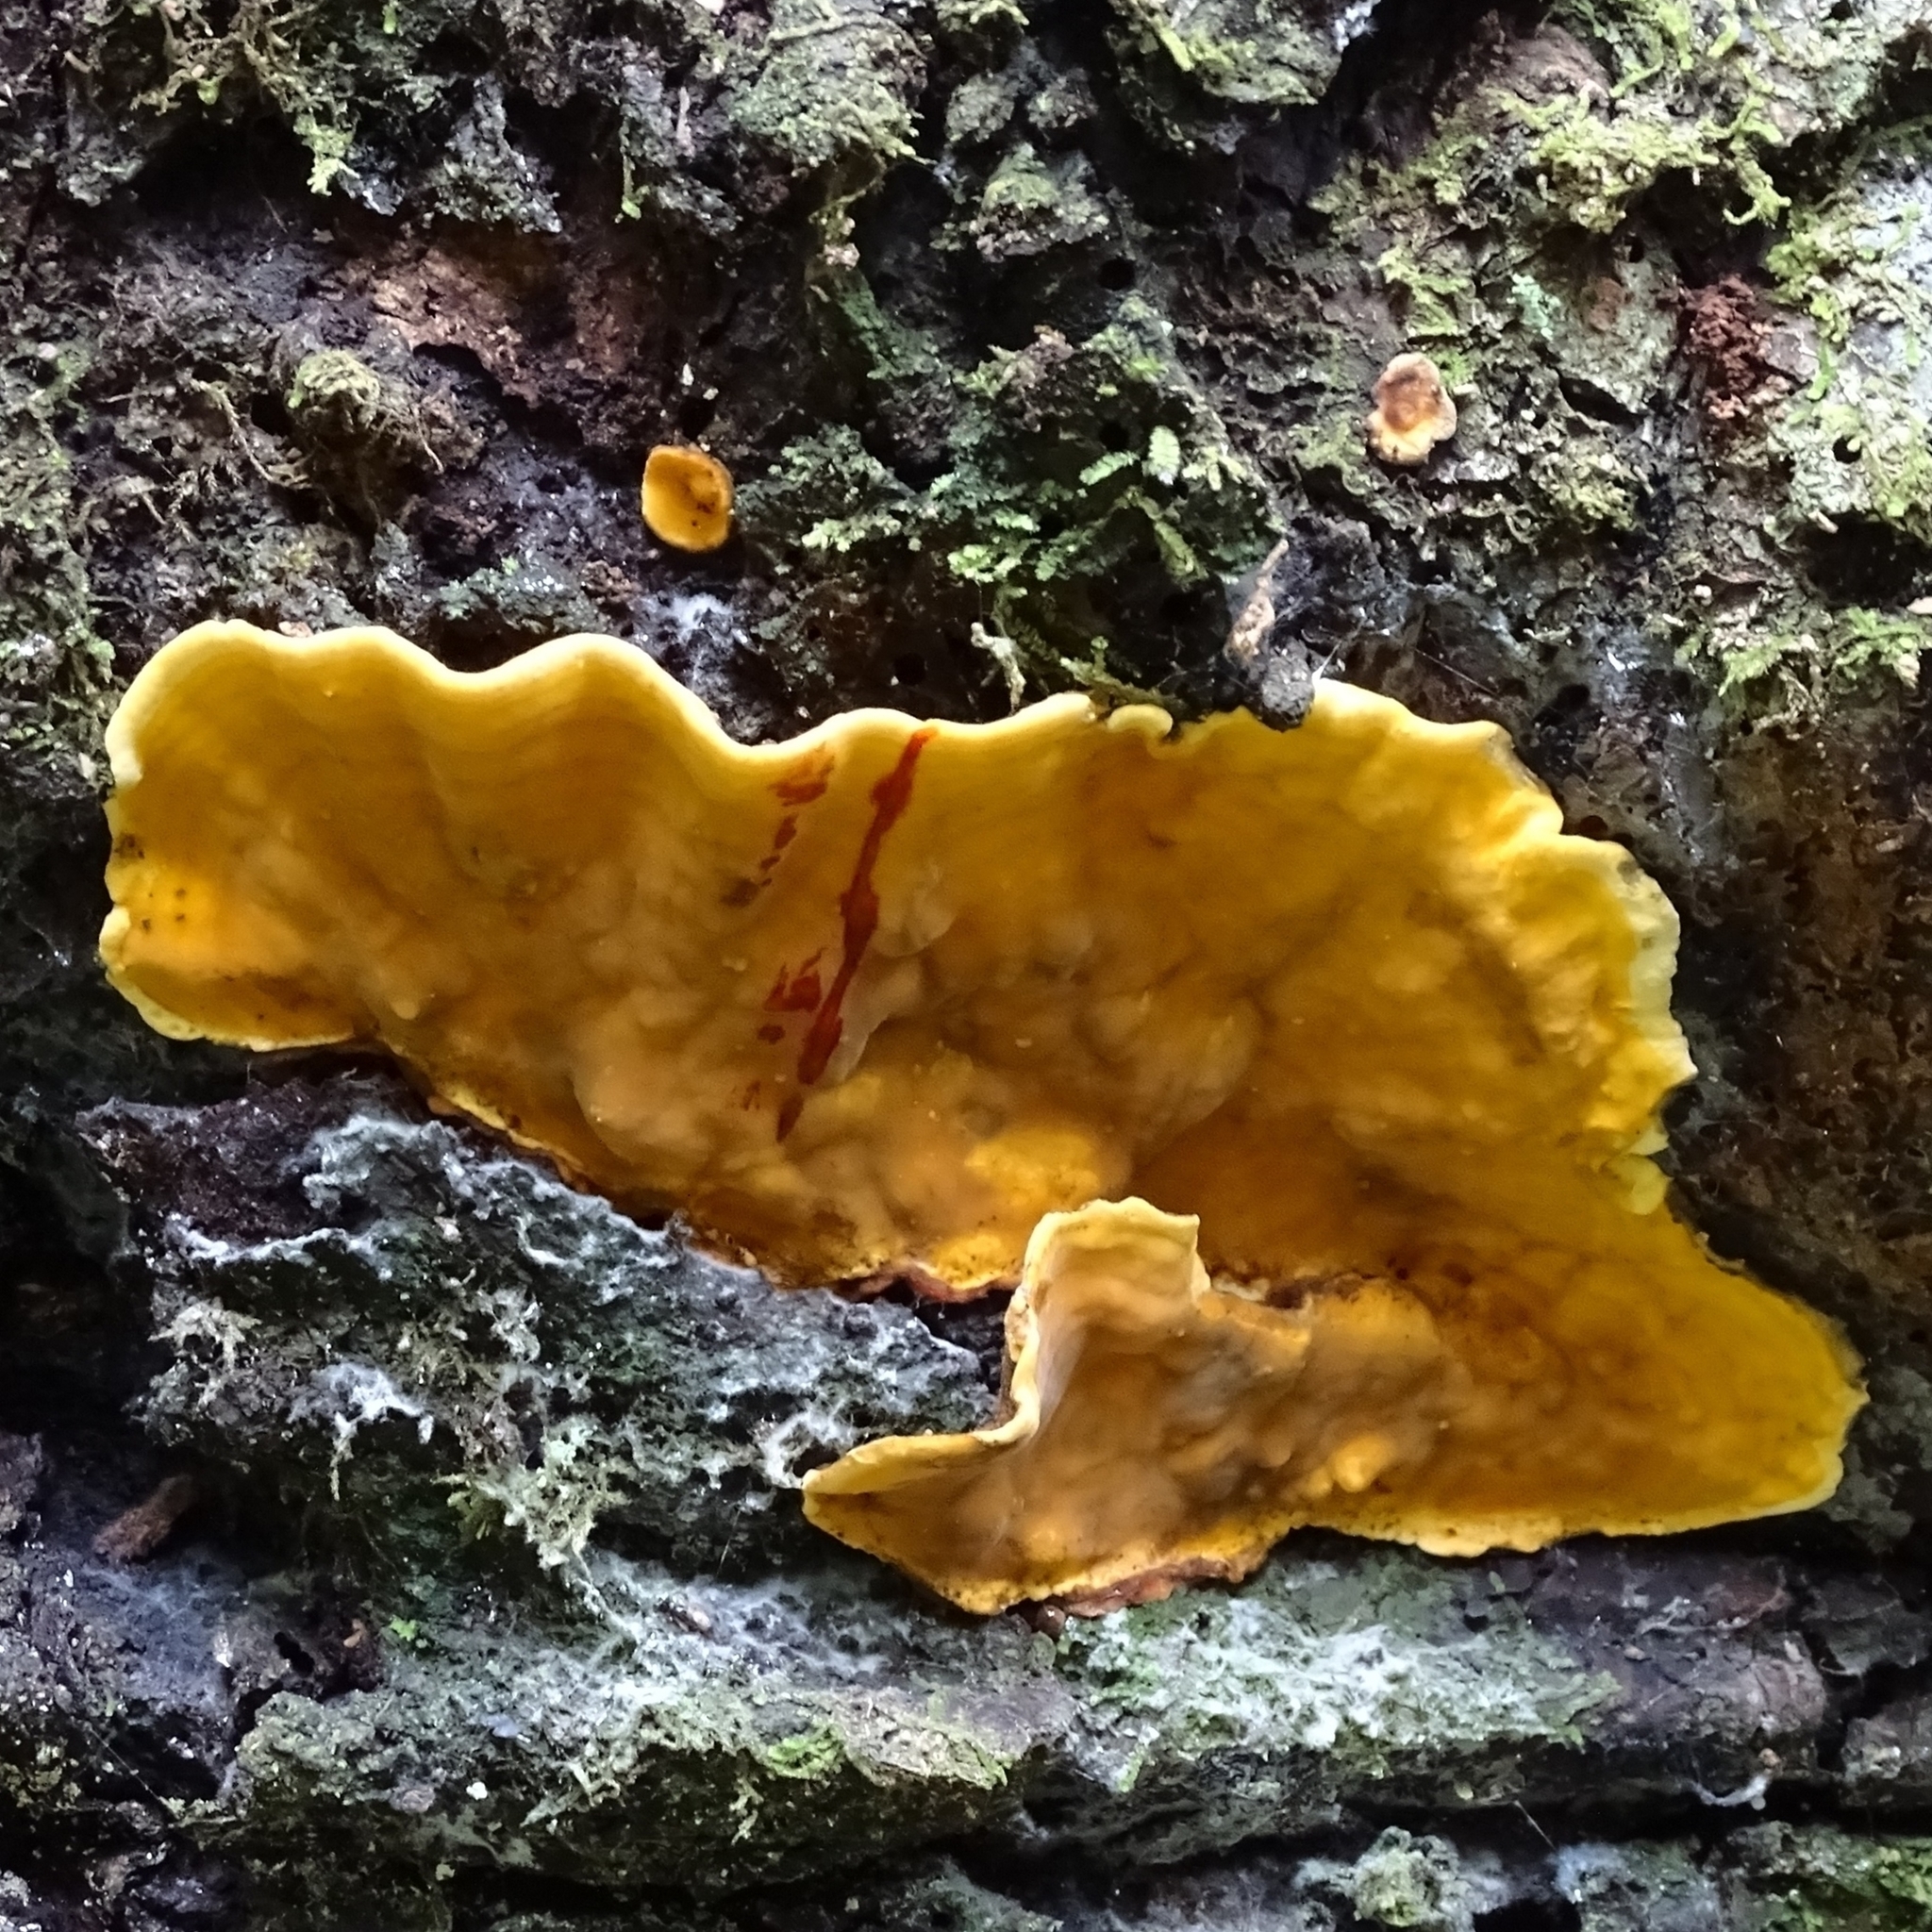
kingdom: Fungi
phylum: Basidiomycota
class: Agaricomycetes
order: Russulales
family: Stereaceae
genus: Stereum
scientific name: Stereum greslebiniae
